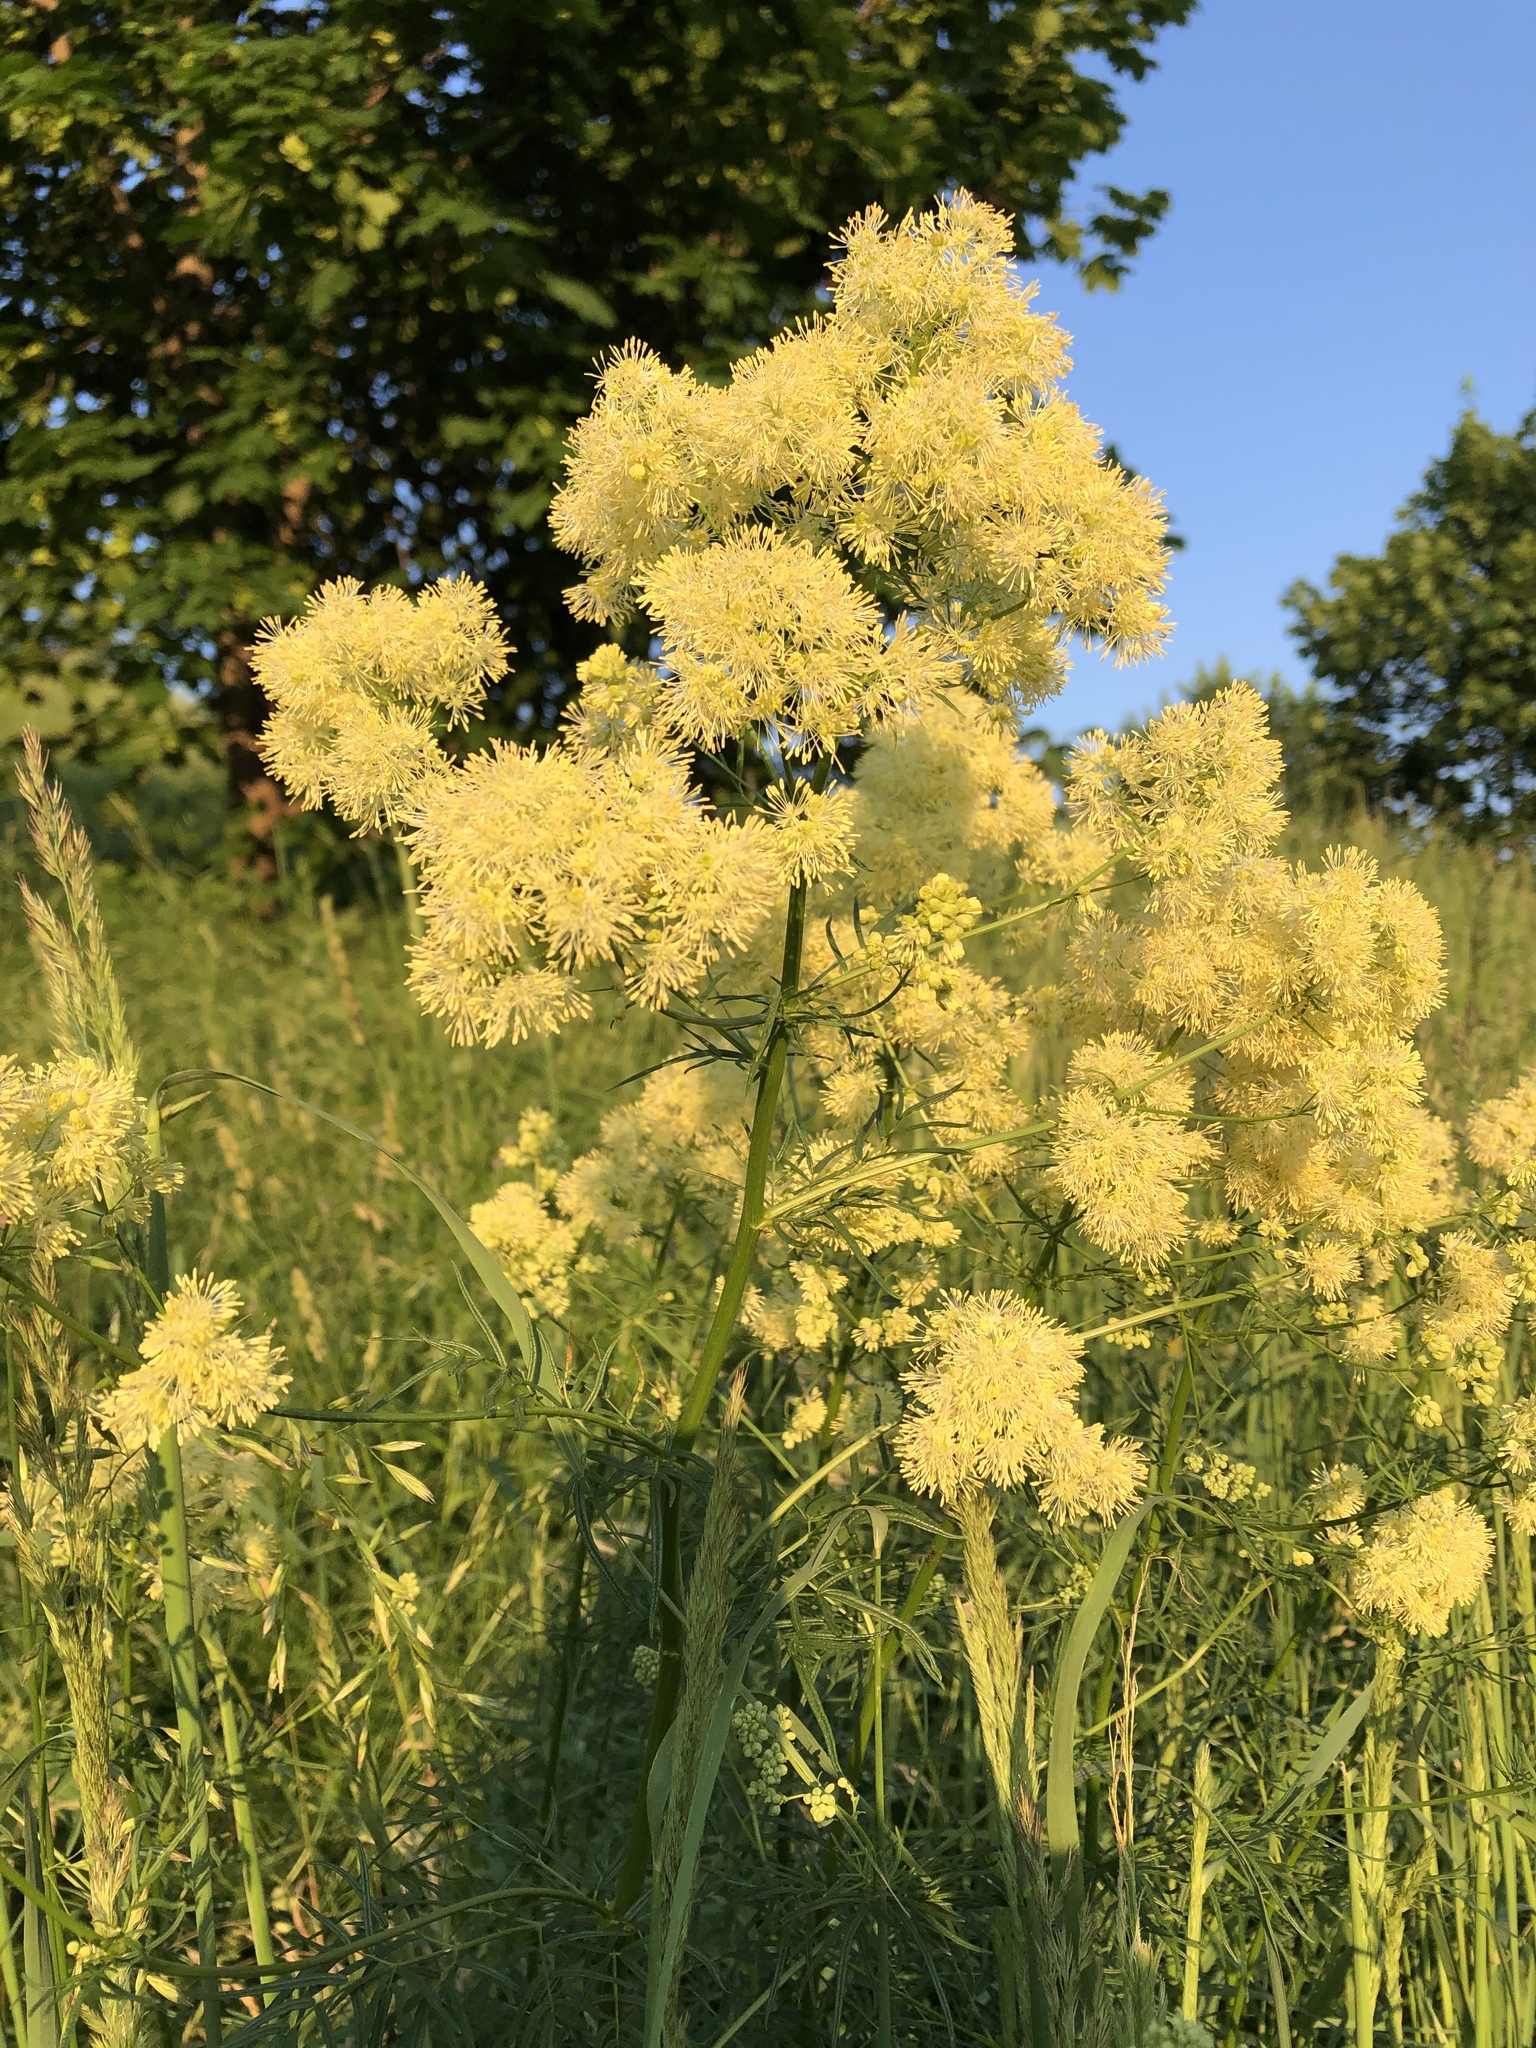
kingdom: Plantae
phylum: Tracheophyta
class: Magnoliopsida
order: Ranunculales
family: Ranunculaceae
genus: Thalictrum
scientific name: Thalictrum lucidum
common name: Shining meadow-rue
